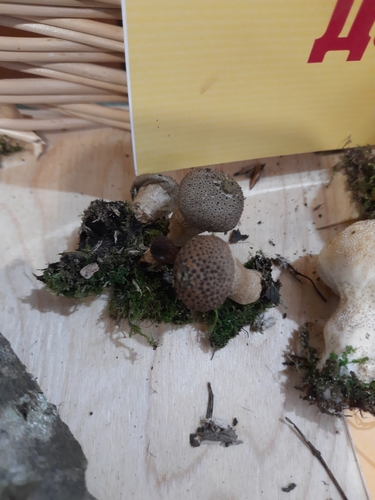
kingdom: Fungi
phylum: Basidiomycota
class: Agaricomycetes
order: Agaricales
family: Lycoperdaceae
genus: Lycoperdon
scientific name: Lycoperdon perlatum
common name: Common puffball
